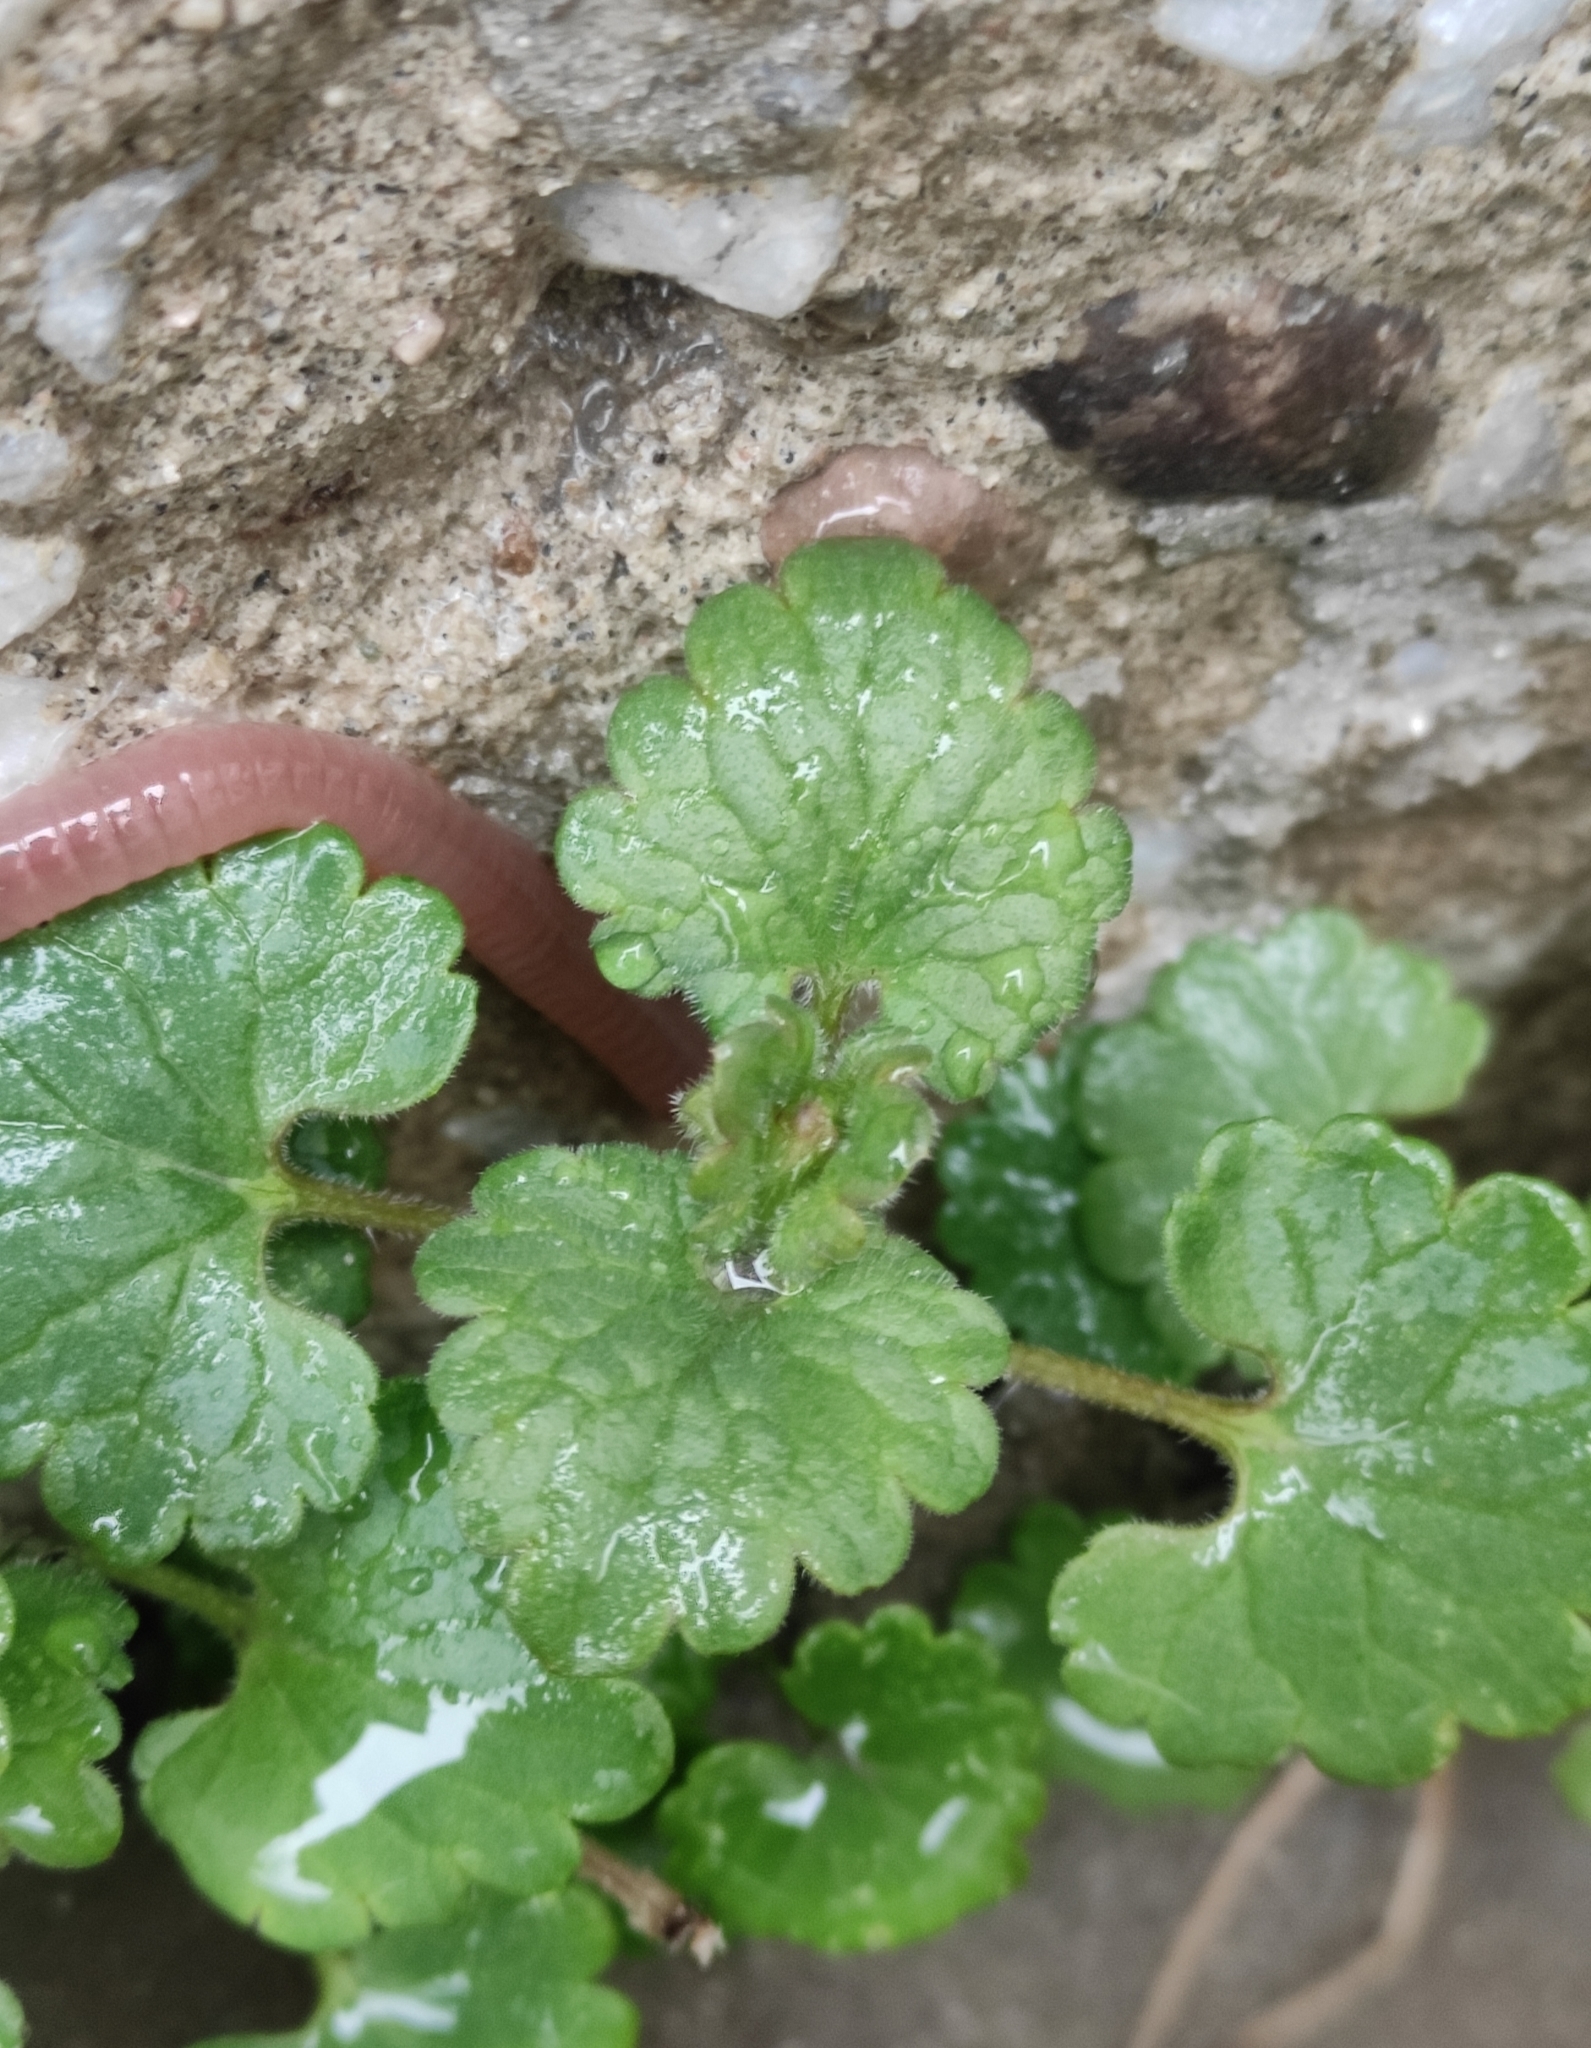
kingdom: Plantae
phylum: Tracheophyta
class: Magnoliopsida
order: Lamiales
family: Lamiaceae
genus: Glechoma
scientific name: Glechoma hederacea
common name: Ground ivy
